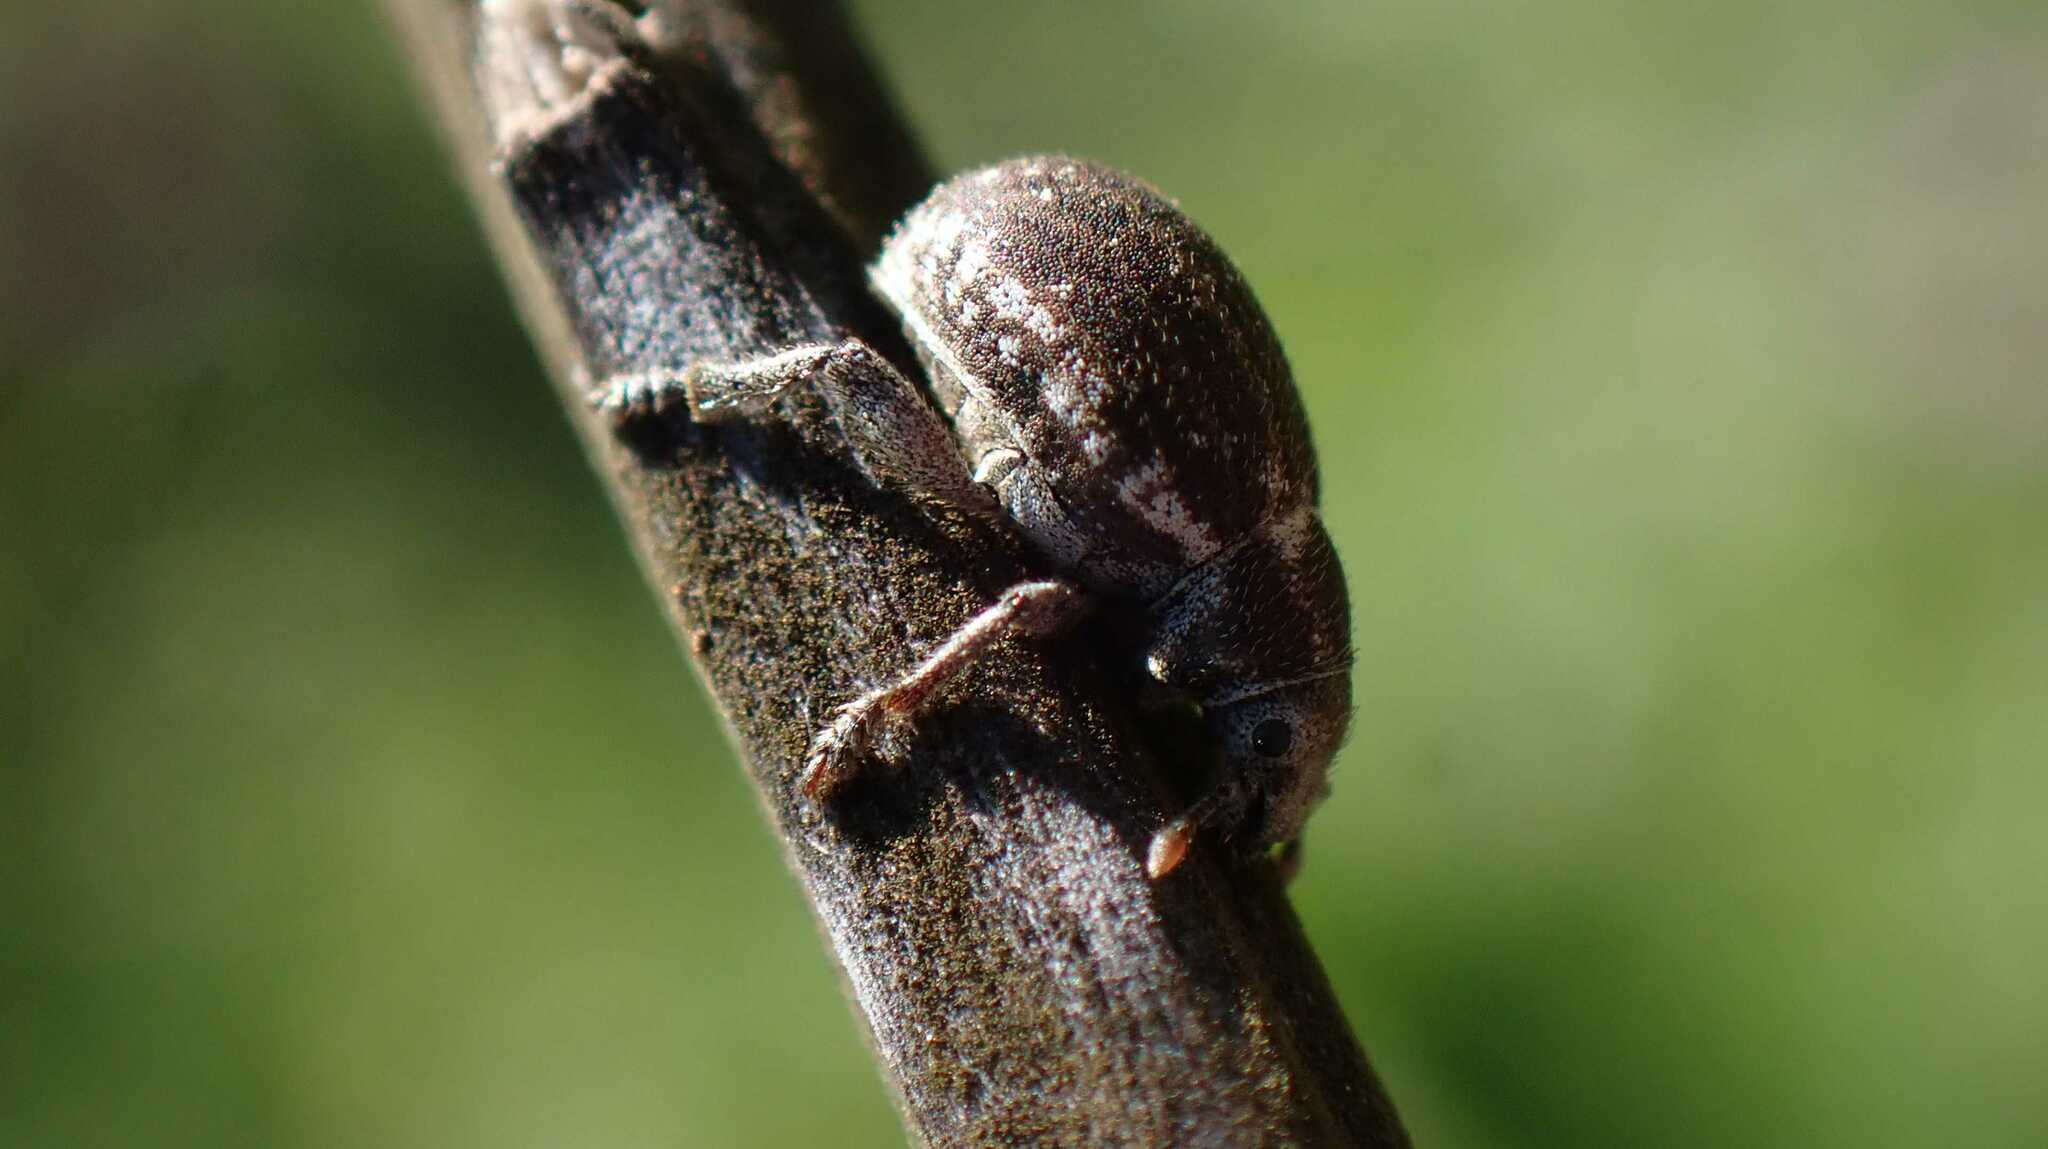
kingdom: Animalia
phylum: Arthropoda
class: Insecta
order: Coleoptera
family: Curculionidae
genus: Philopedon
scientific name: Philopedon plagiatum
